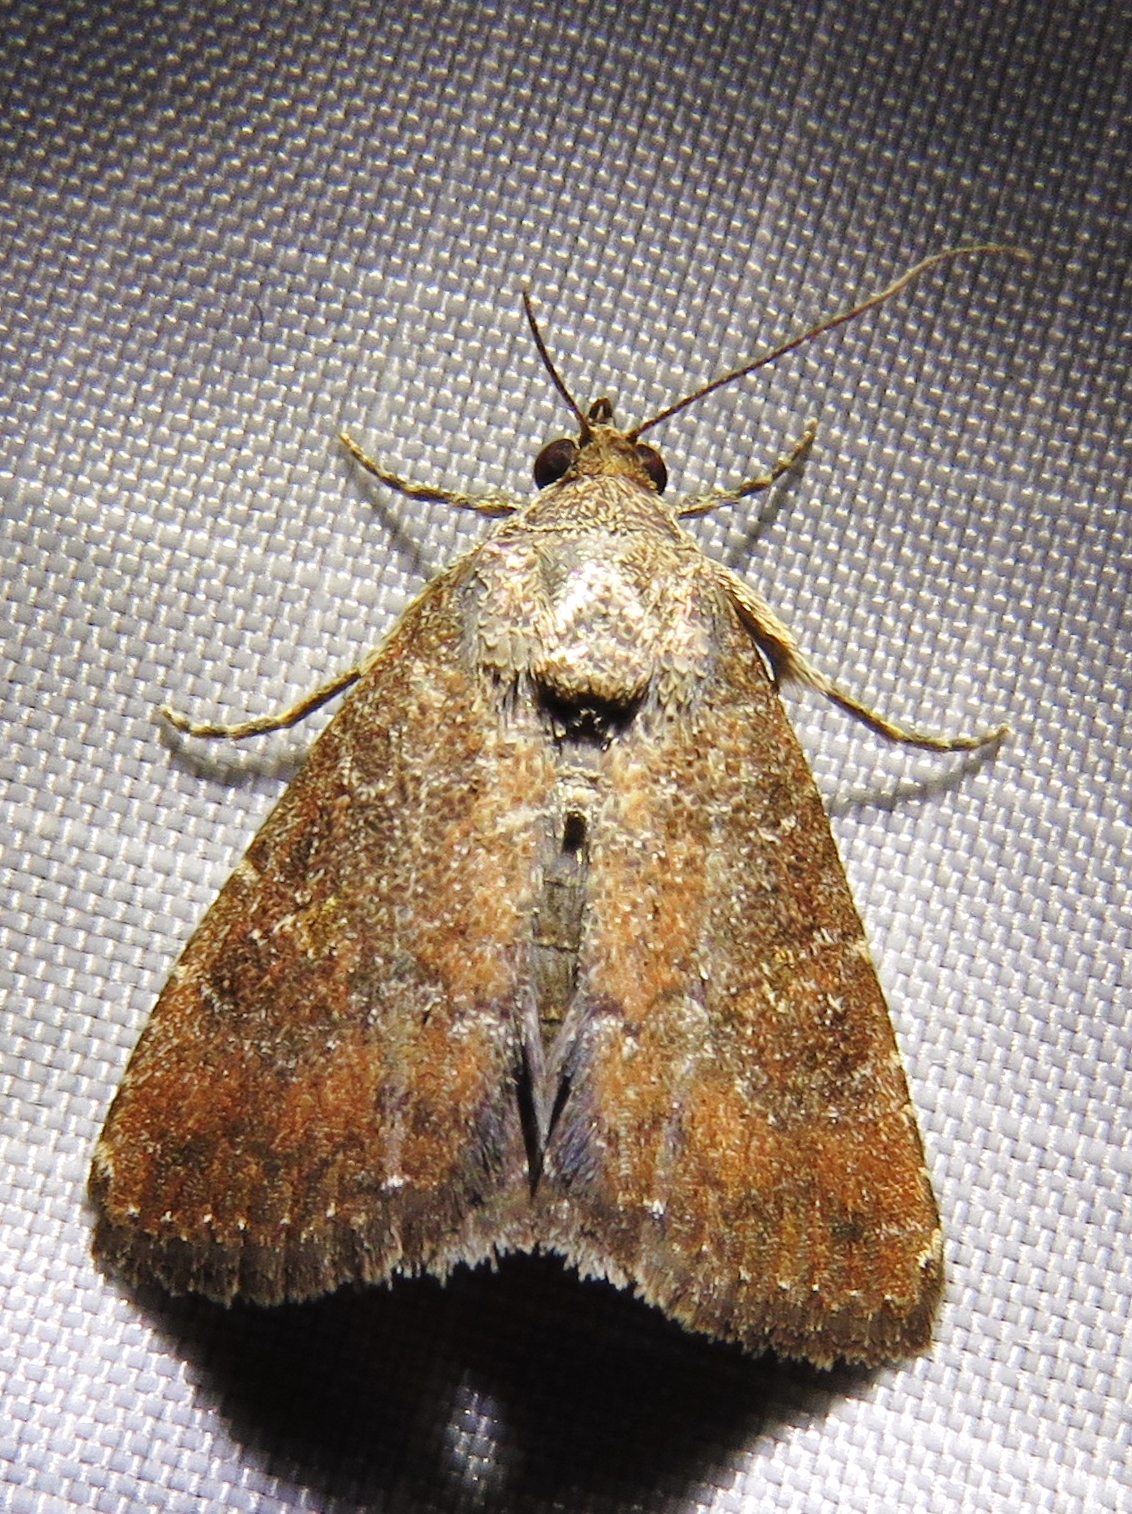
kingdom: Animalia
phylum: Arthropoda
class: Insecta
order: Lepidoptera
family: Noctuidae
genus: Amyna
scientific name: Amyna stricta
